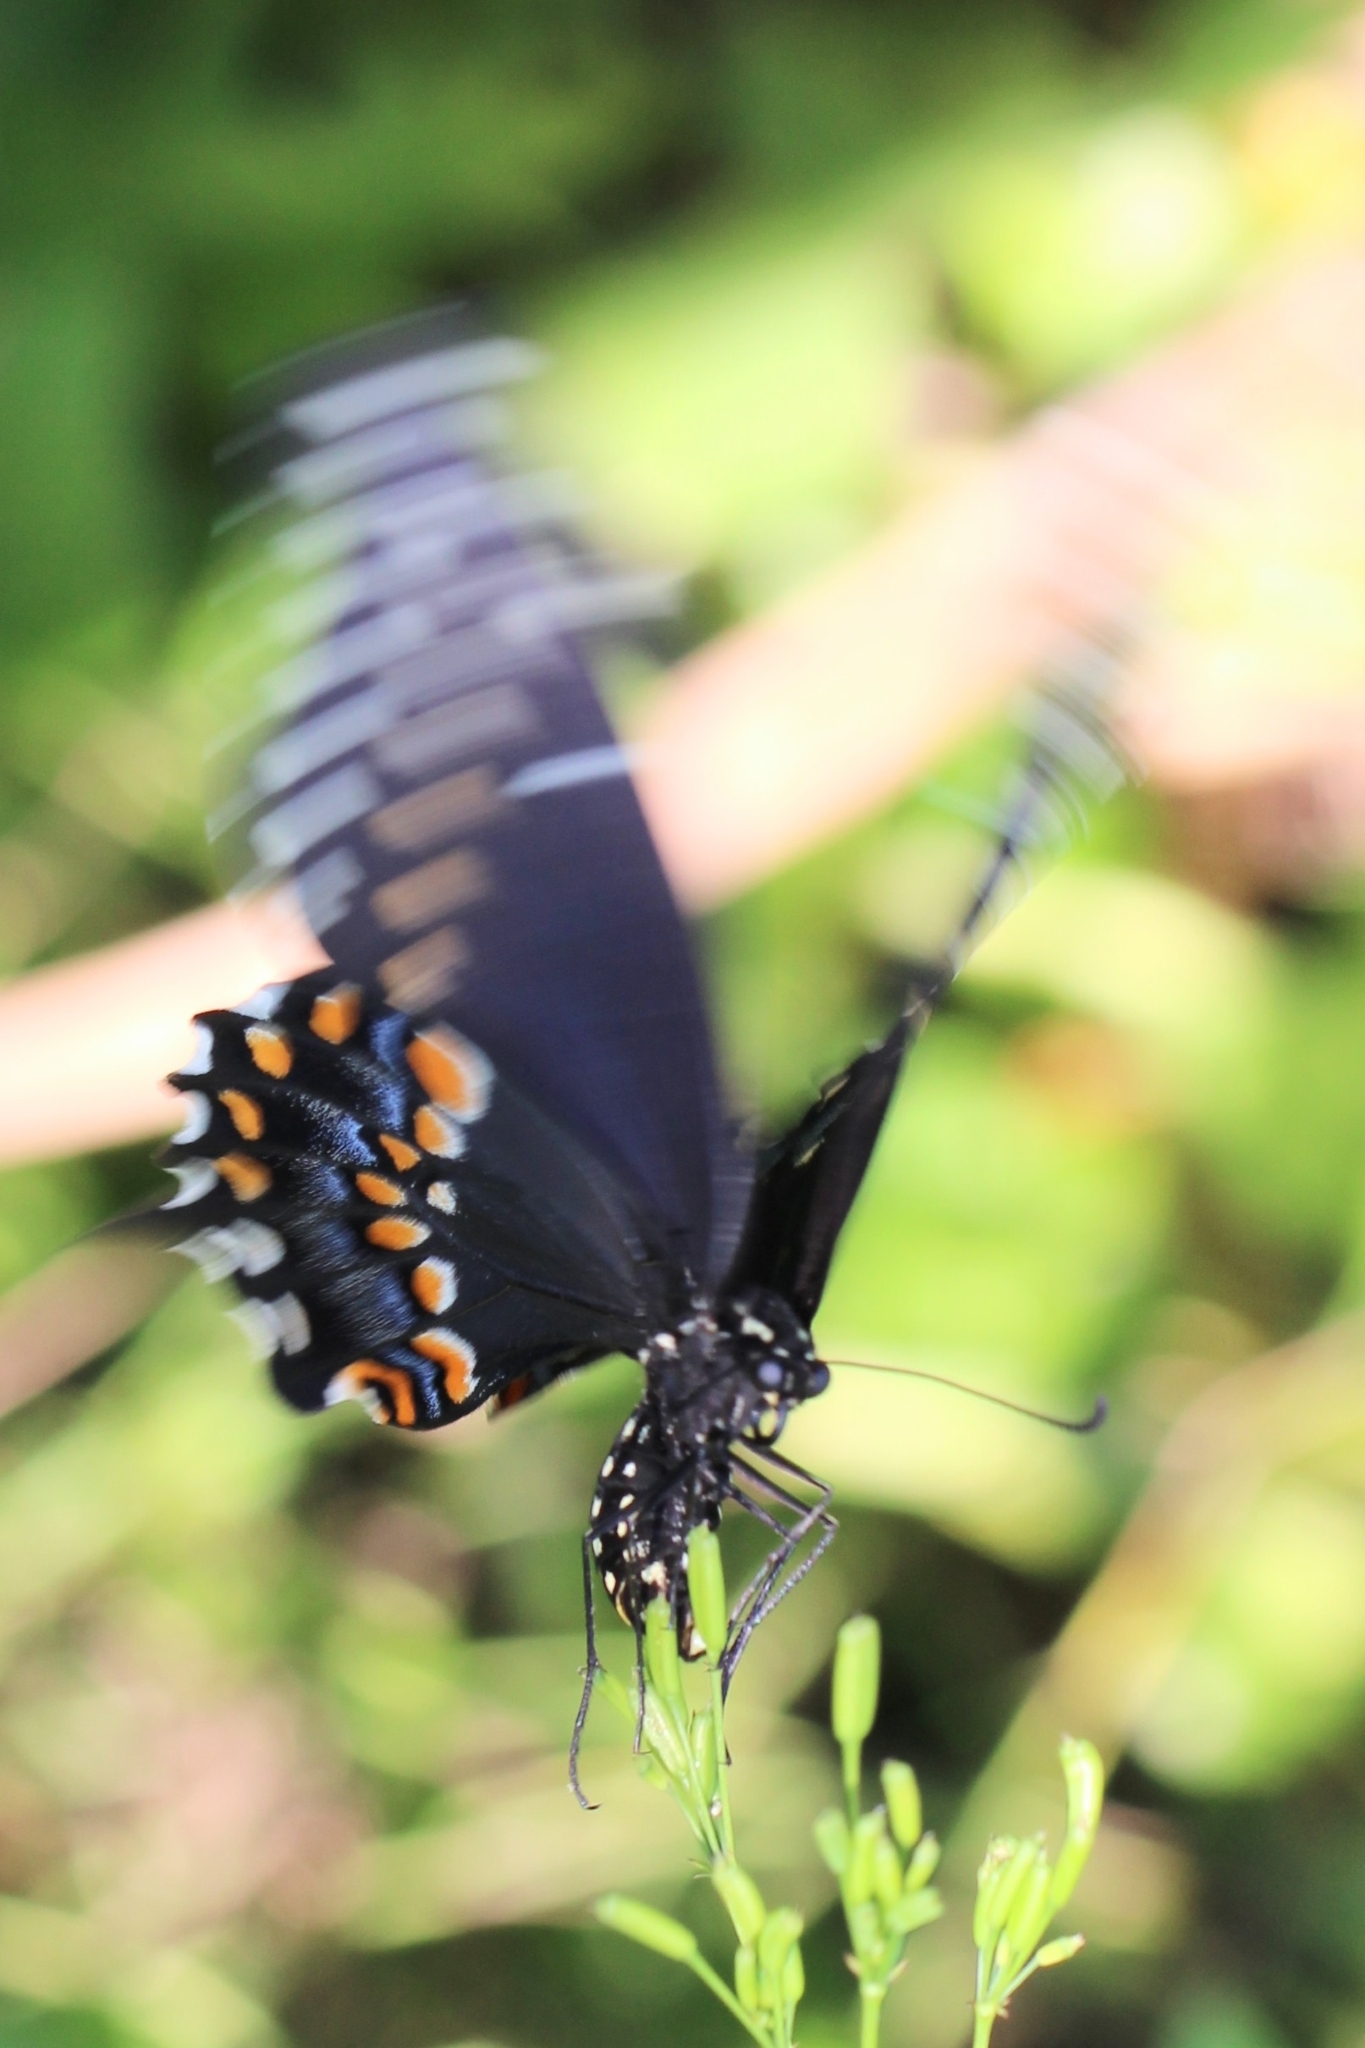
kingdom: Animalia
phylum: Arthropoda
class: Insecta
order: Lepidoptera
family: Papilionidae
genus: Papilio
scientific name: Papilio polyxenes
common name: Black swallowtail
